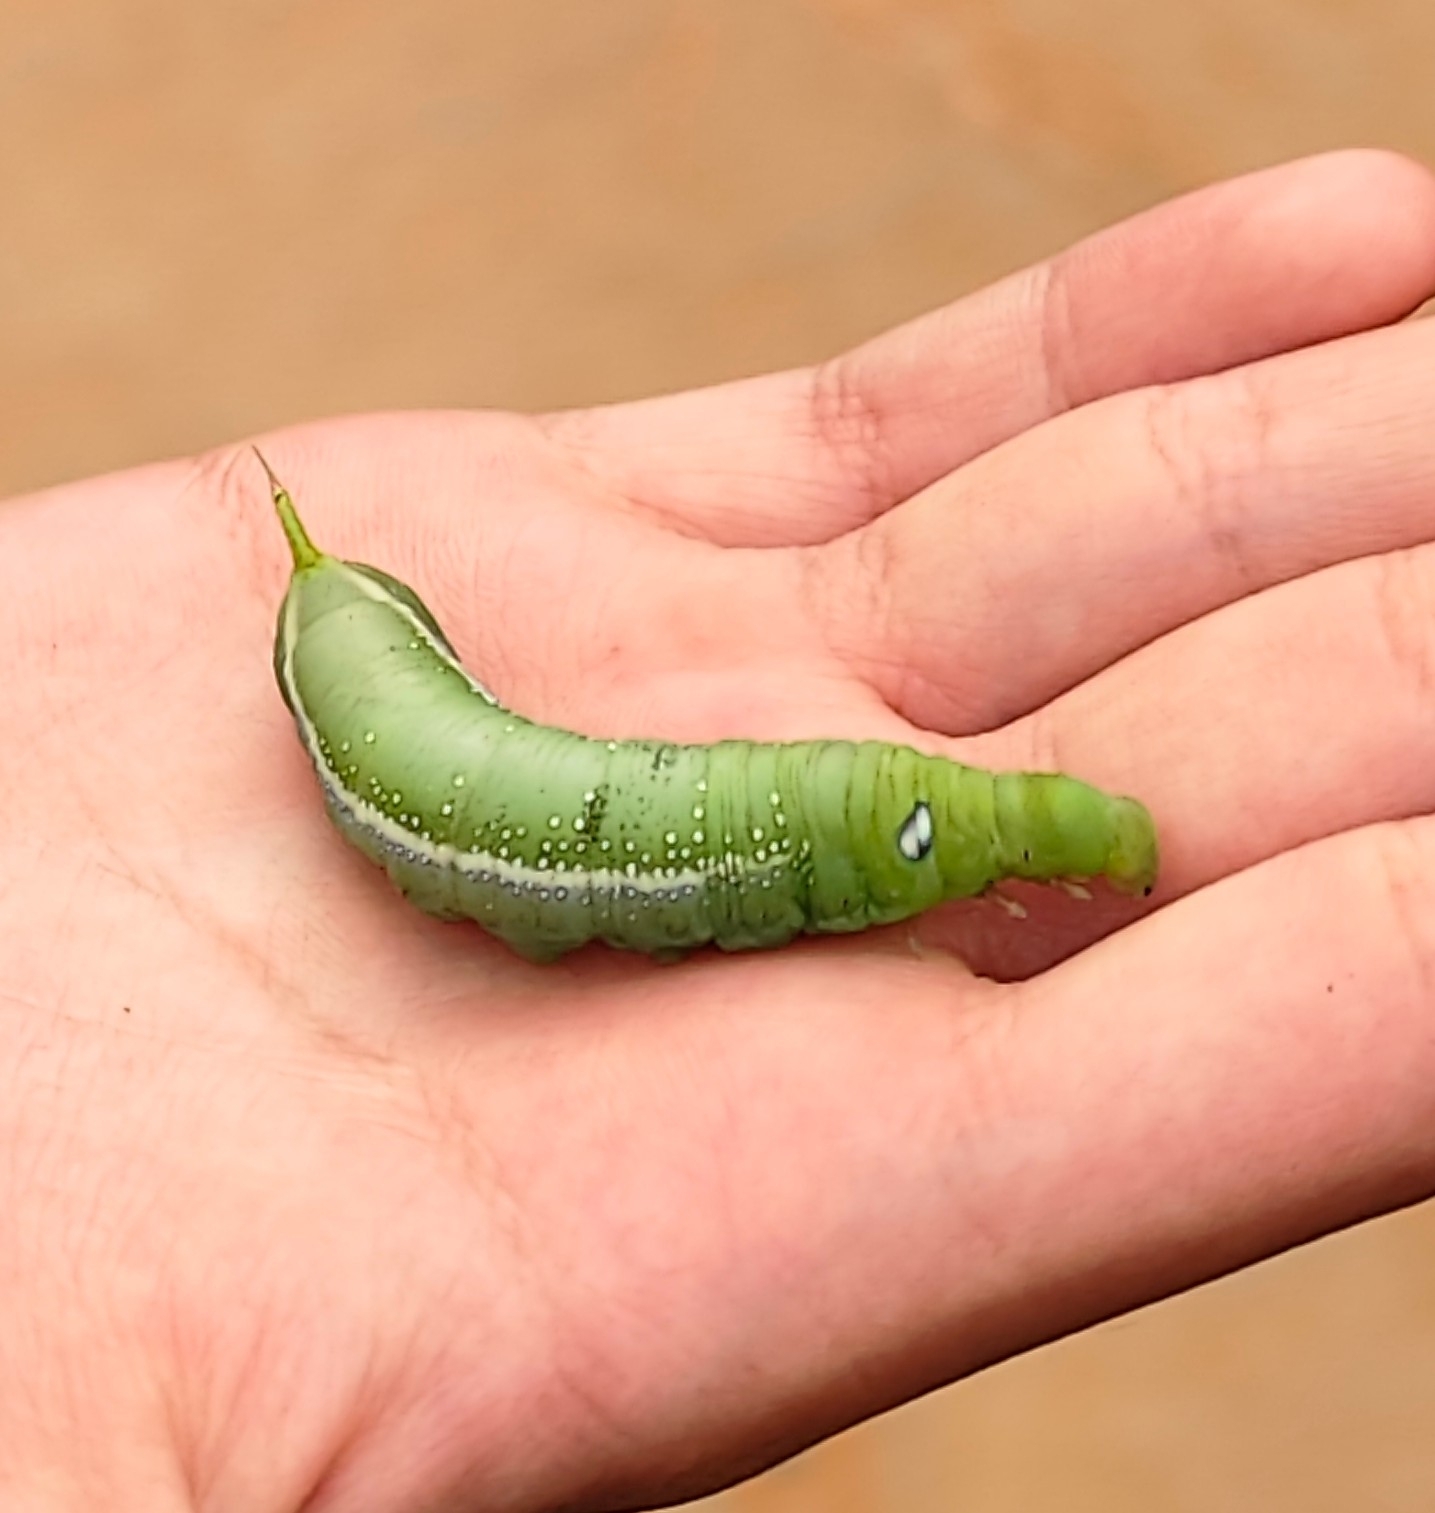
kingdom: Animalia
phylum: Arthropoda
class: Insecta
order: Lepidoptera
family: Sphingidae
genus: Daphnis
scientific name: Daphnis nerii
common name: Oleander hawk-moth
